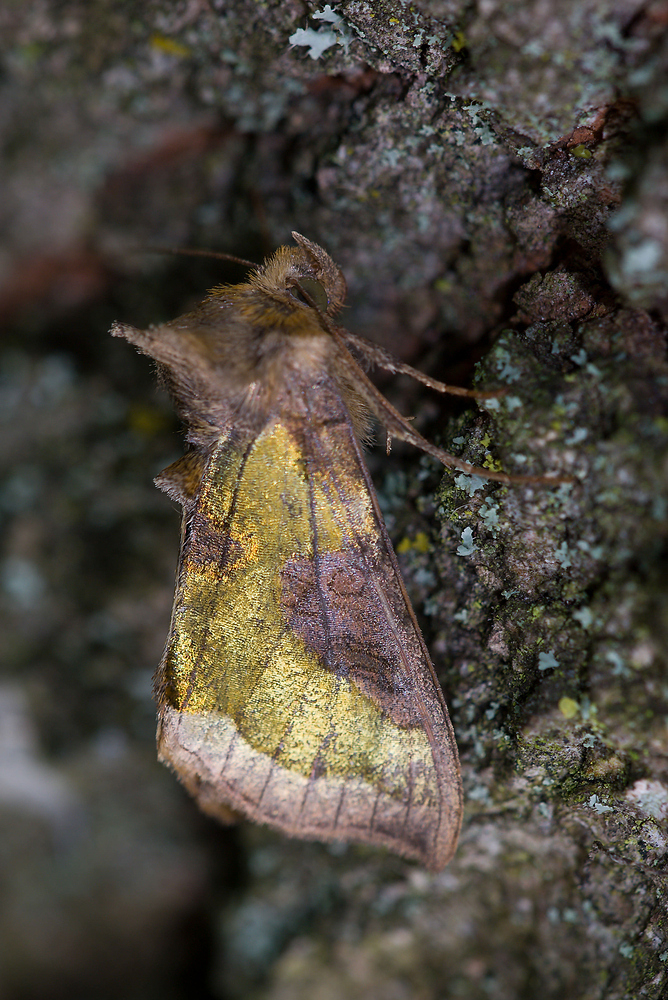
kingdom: Animalia
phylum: Arthropoda
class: Insecta
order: Lepidoptera
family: Noctuidae
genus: Diachrysia
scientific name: Diachrysia chrysitis
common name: Burnished brass
